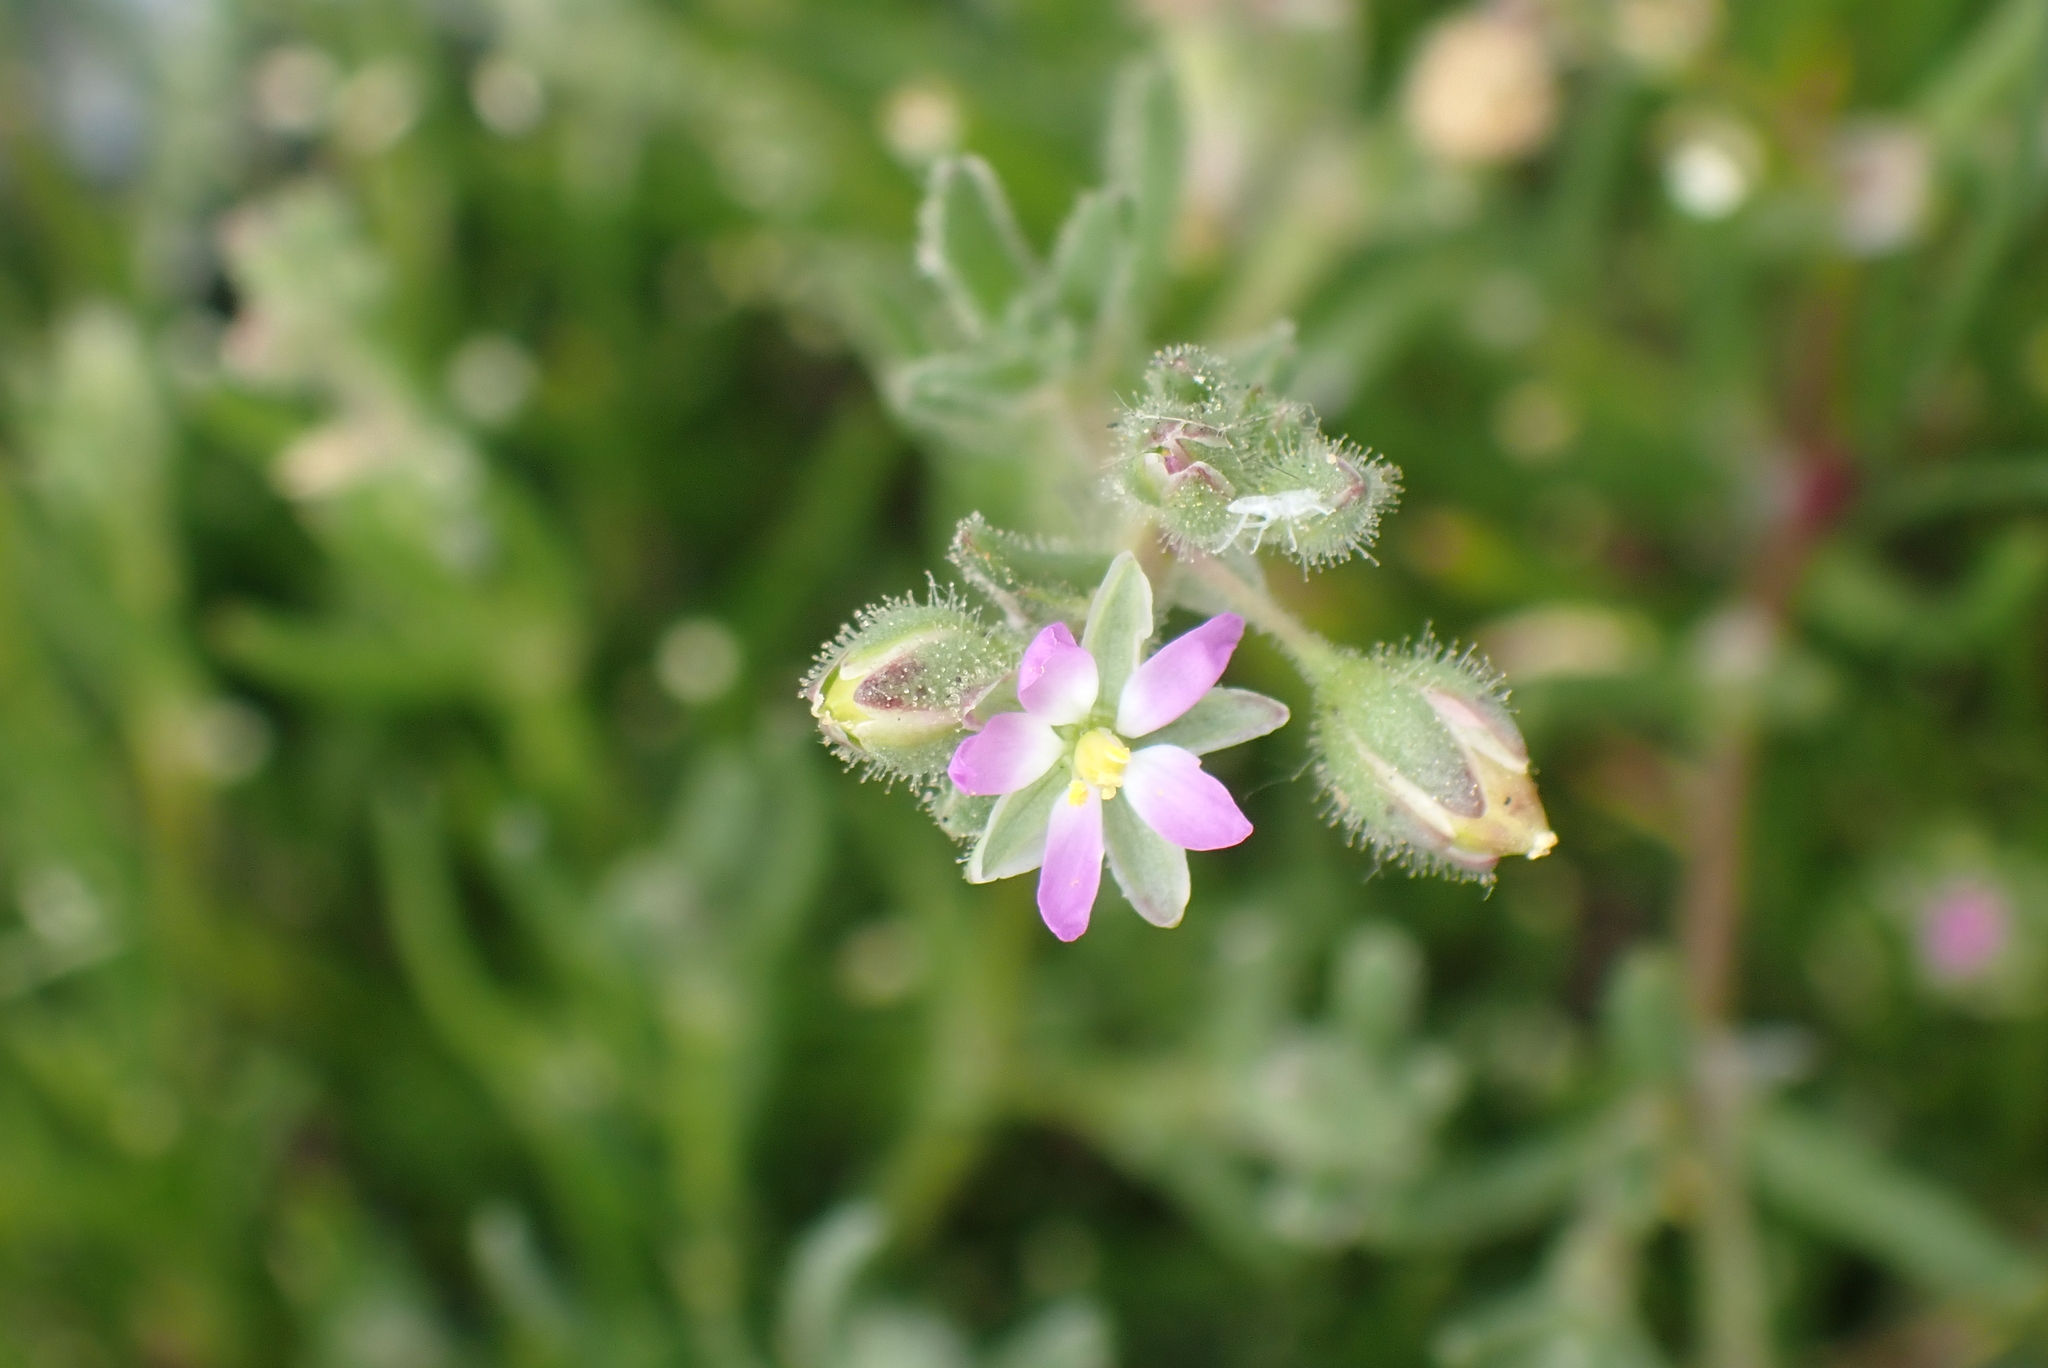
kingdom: Plantae
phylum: Tracheophyta
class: Magnoliopsida
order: Caryophyllales
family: Caryophyllaceae
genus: Spergularia
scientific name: Spergularia marina
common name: Lesser sea-spurrey
